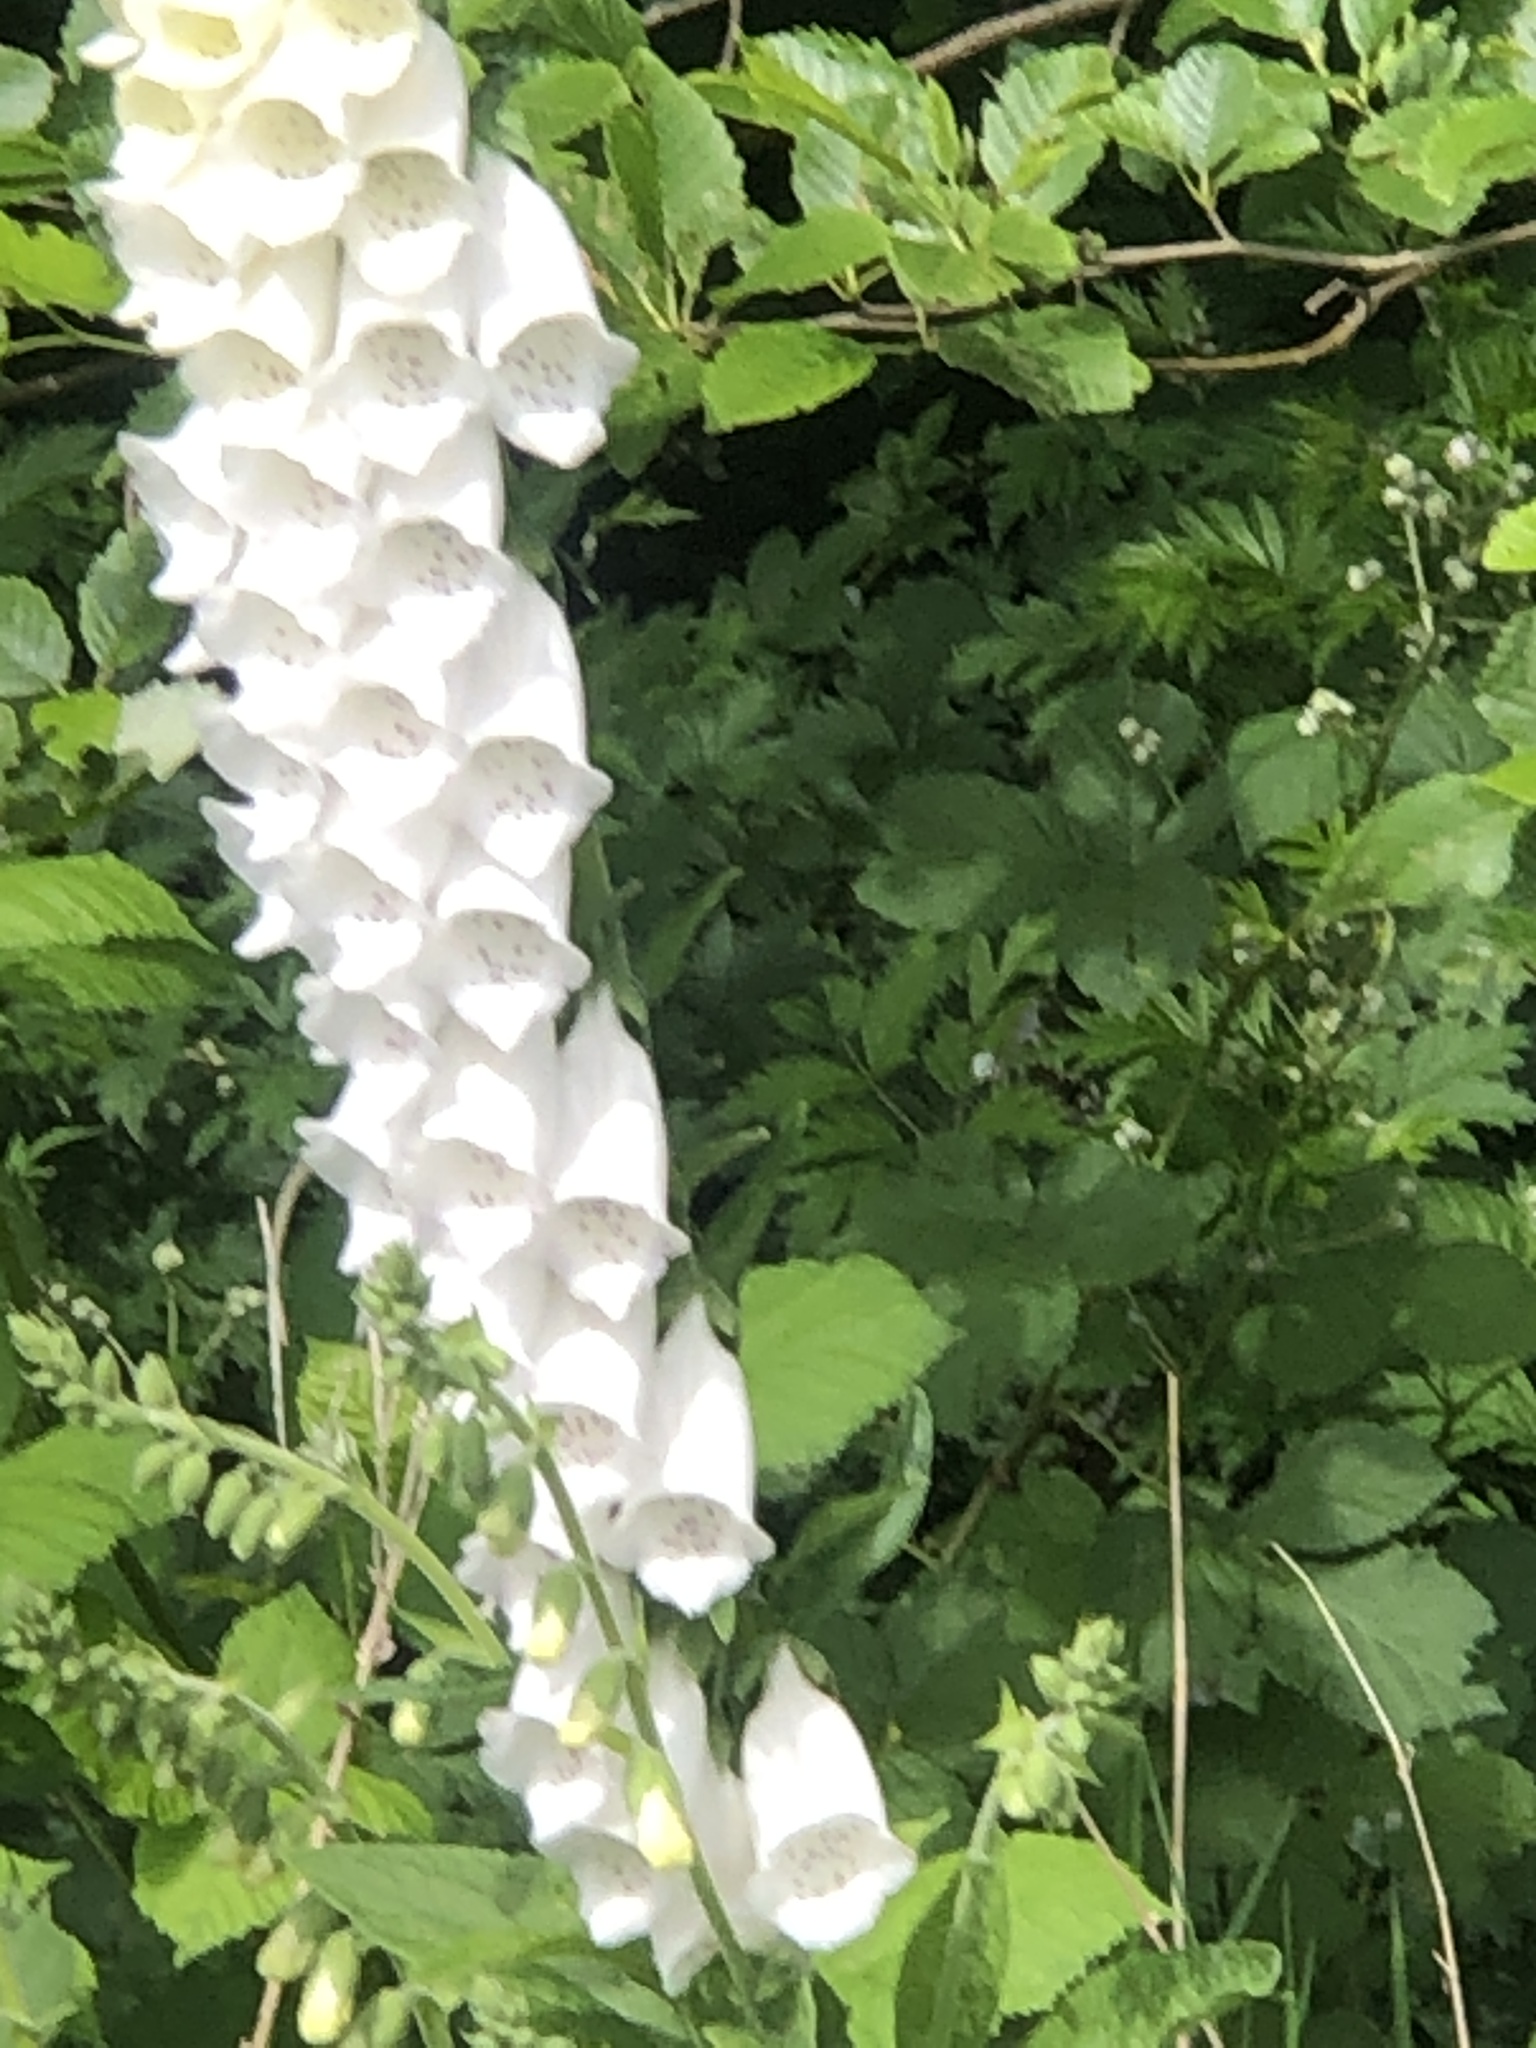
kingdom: Plantae
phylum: Tracheophyta
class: Magnoliopsida
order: Lamiales
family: Plantaginaceae
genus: Digitalis
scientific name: Digitalis purpurea
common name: Foxglove
